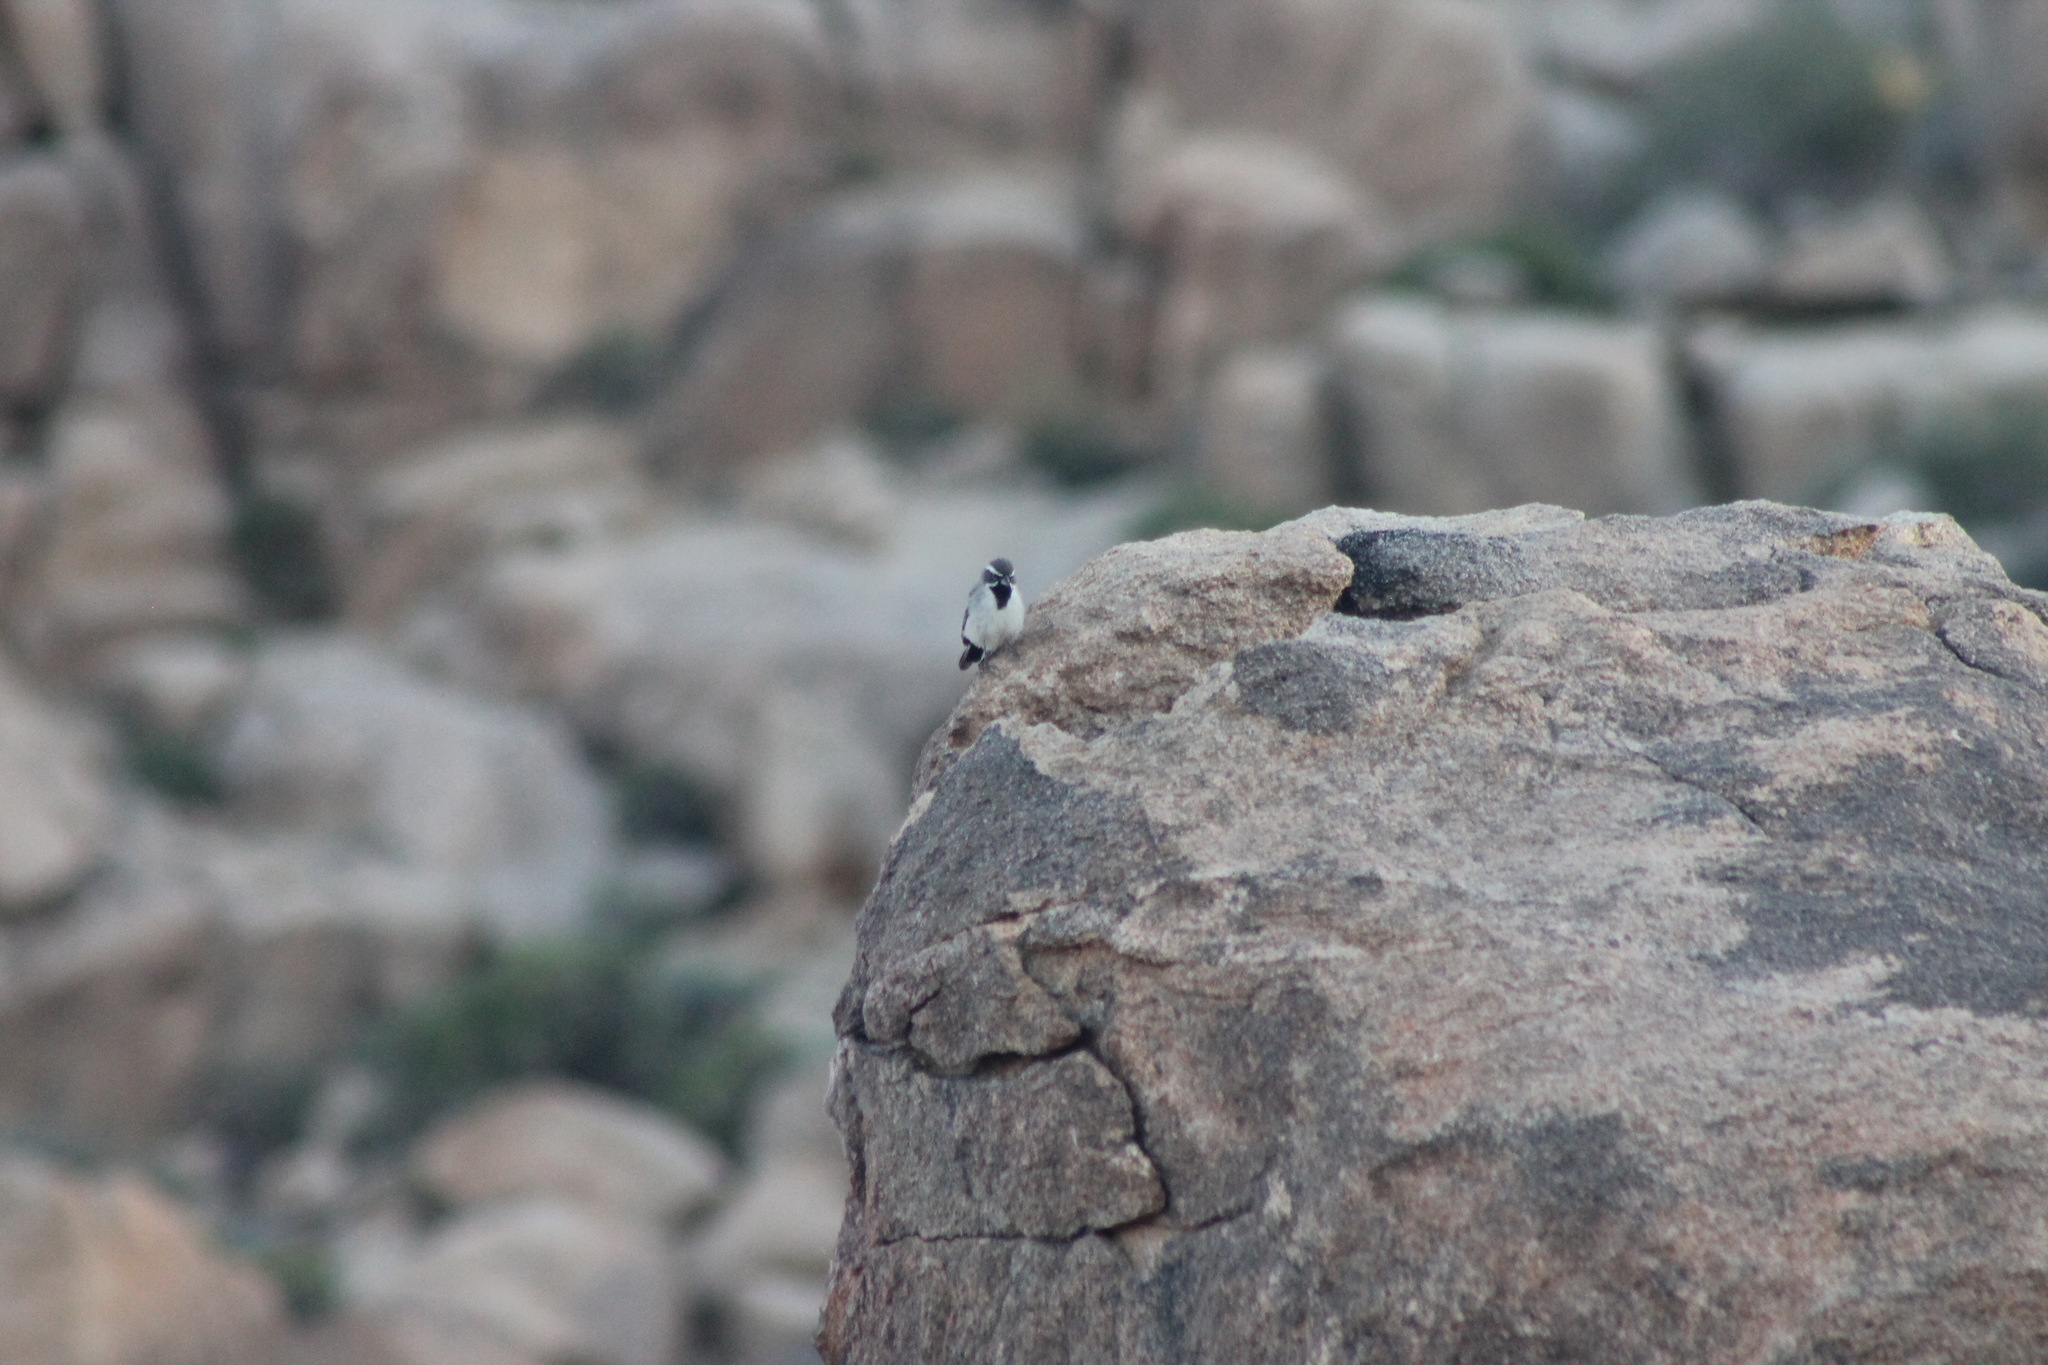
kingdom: Animalia
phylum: Chordata
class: Aves
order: Passeriformes
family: Passerellidae
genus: Amphispiza
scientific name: Amphispiza bilineata
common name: Black-throated sparrow
